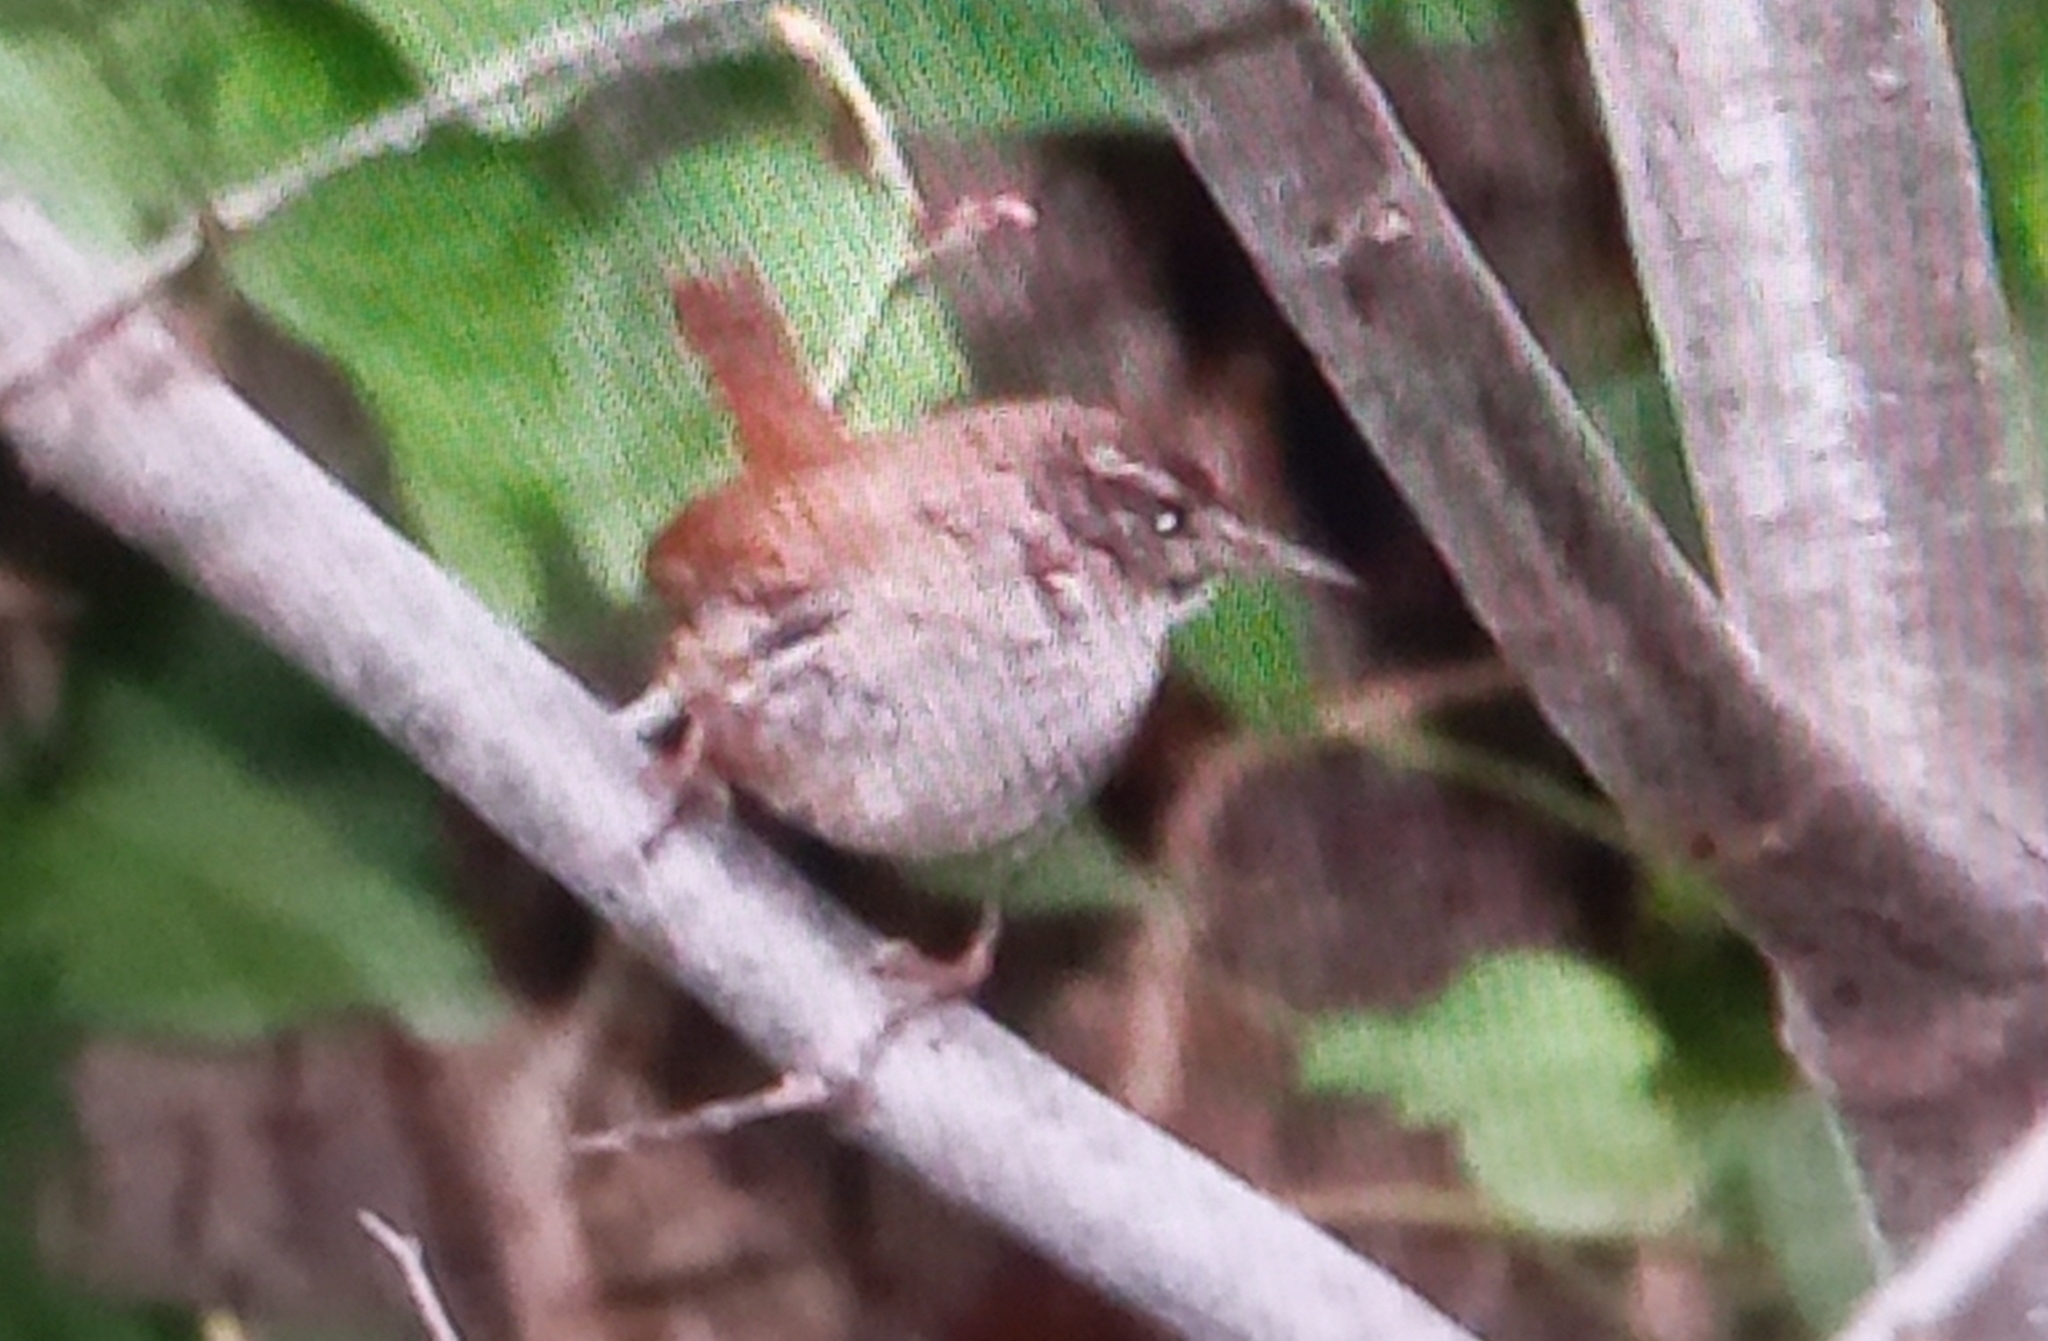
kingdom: Animalia
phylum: Chordata
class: Aves
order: Passeriformes
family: Troglodytidae
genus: Troglodytes
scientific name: Troglodytes troglodytes
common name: Eurasian wren
